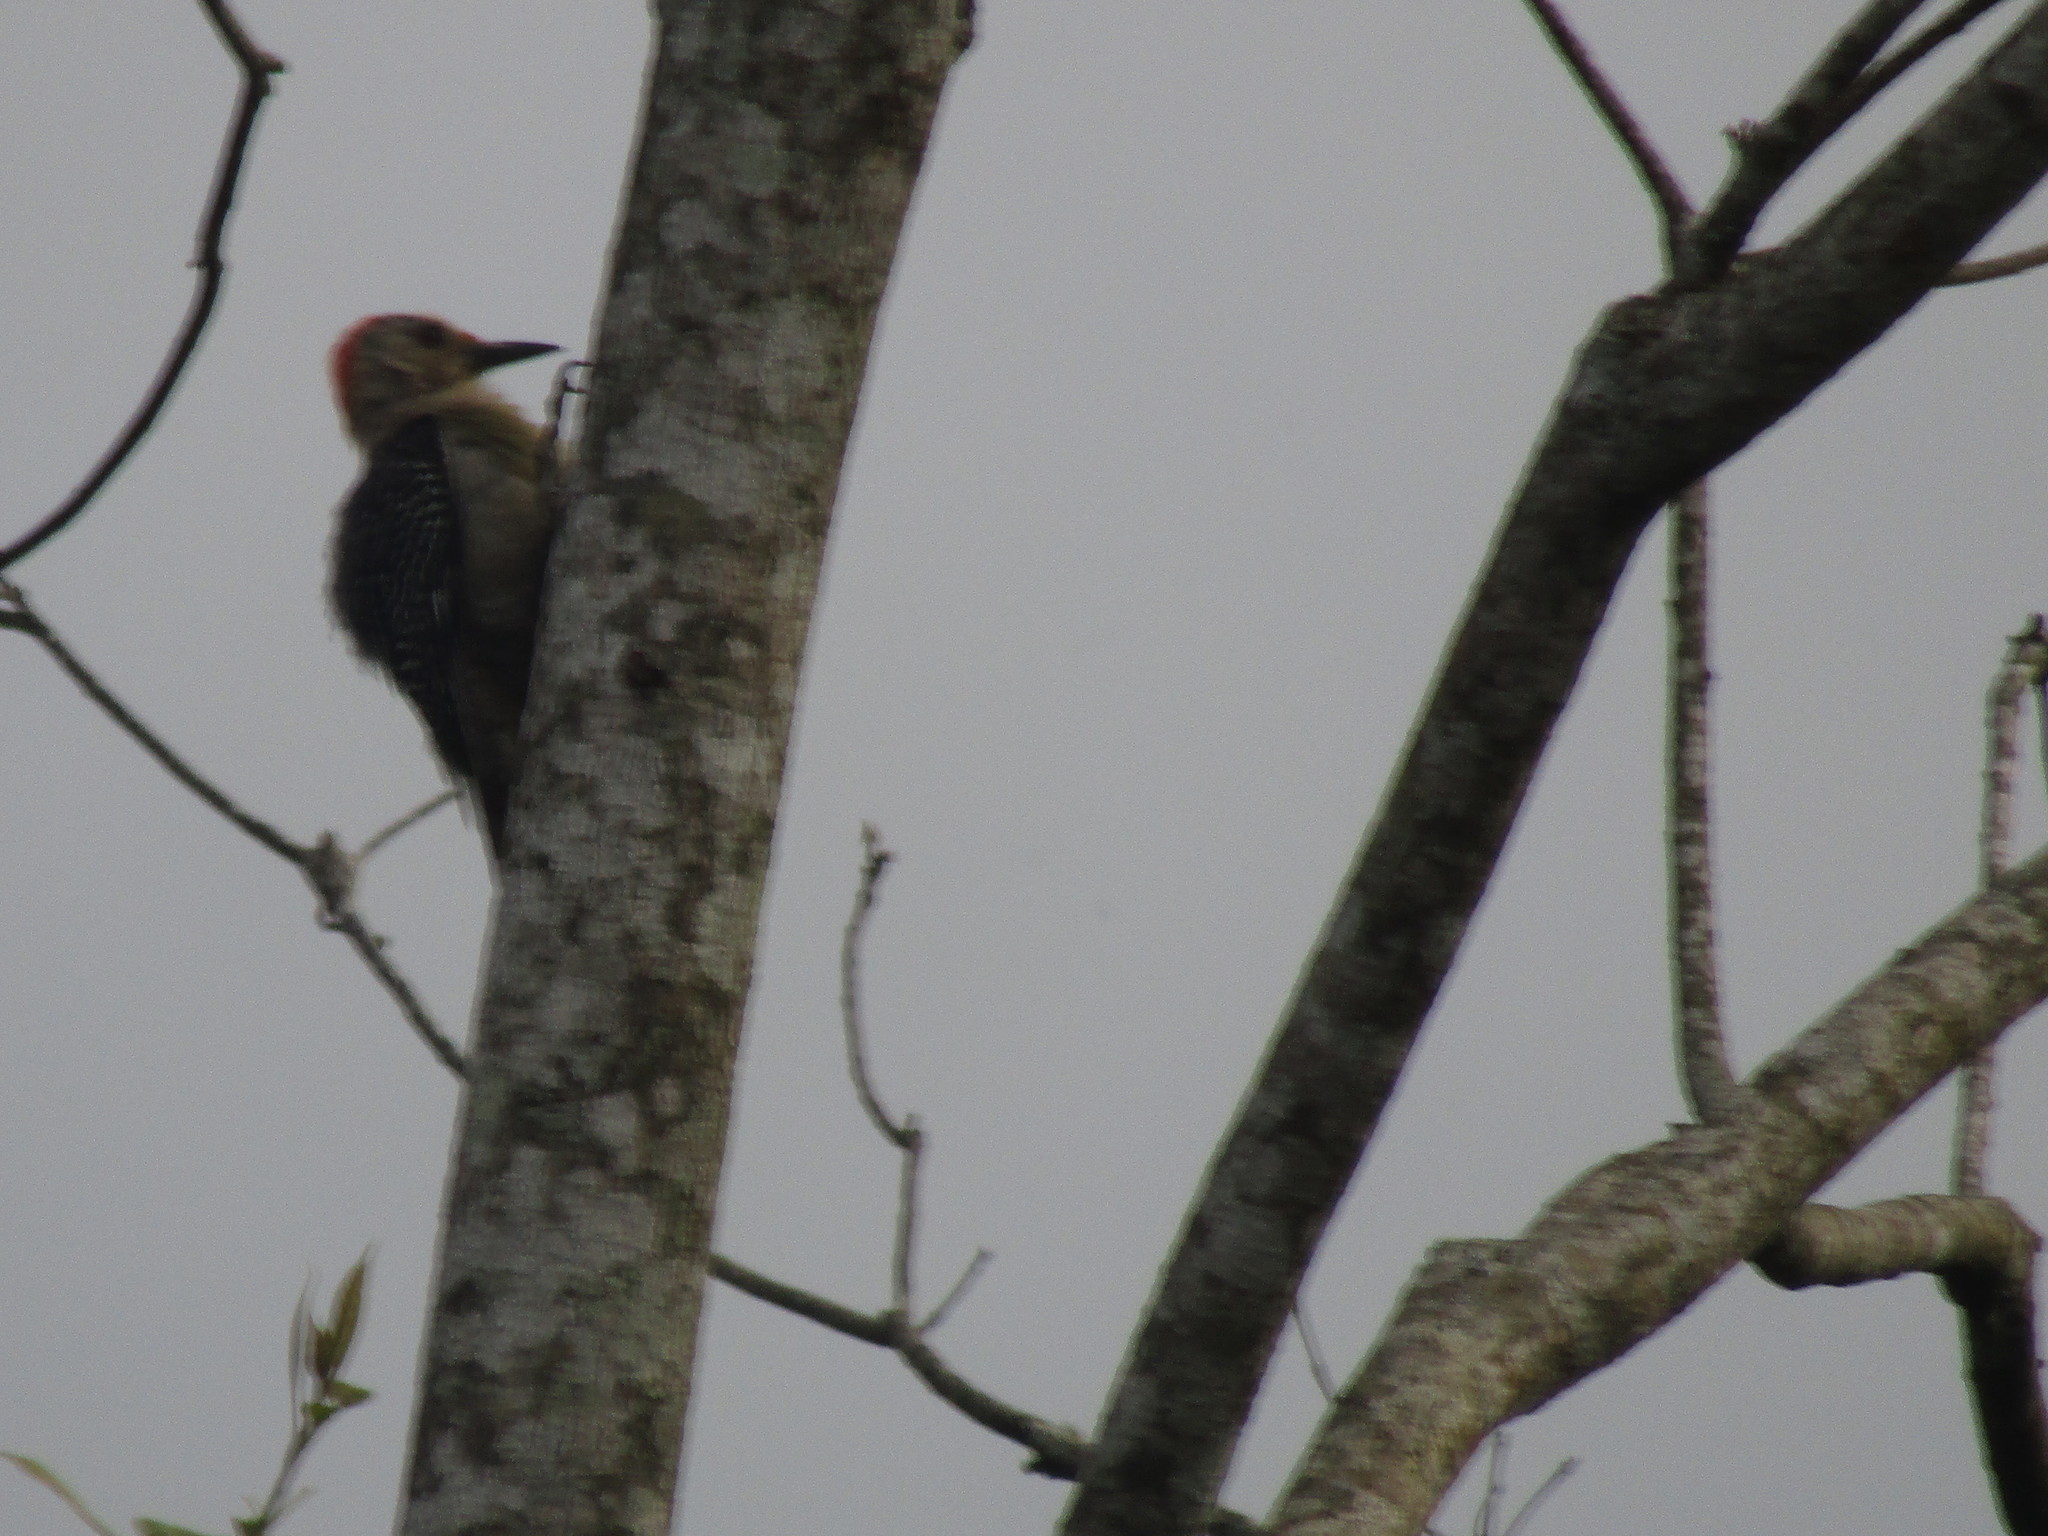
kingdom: Animalia
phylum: Chordata
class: Aves
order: Piciformes
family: Picidae
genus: Melanerpes
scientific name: Melanerpes aurifrons
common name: Golden-fronted woodpecker
